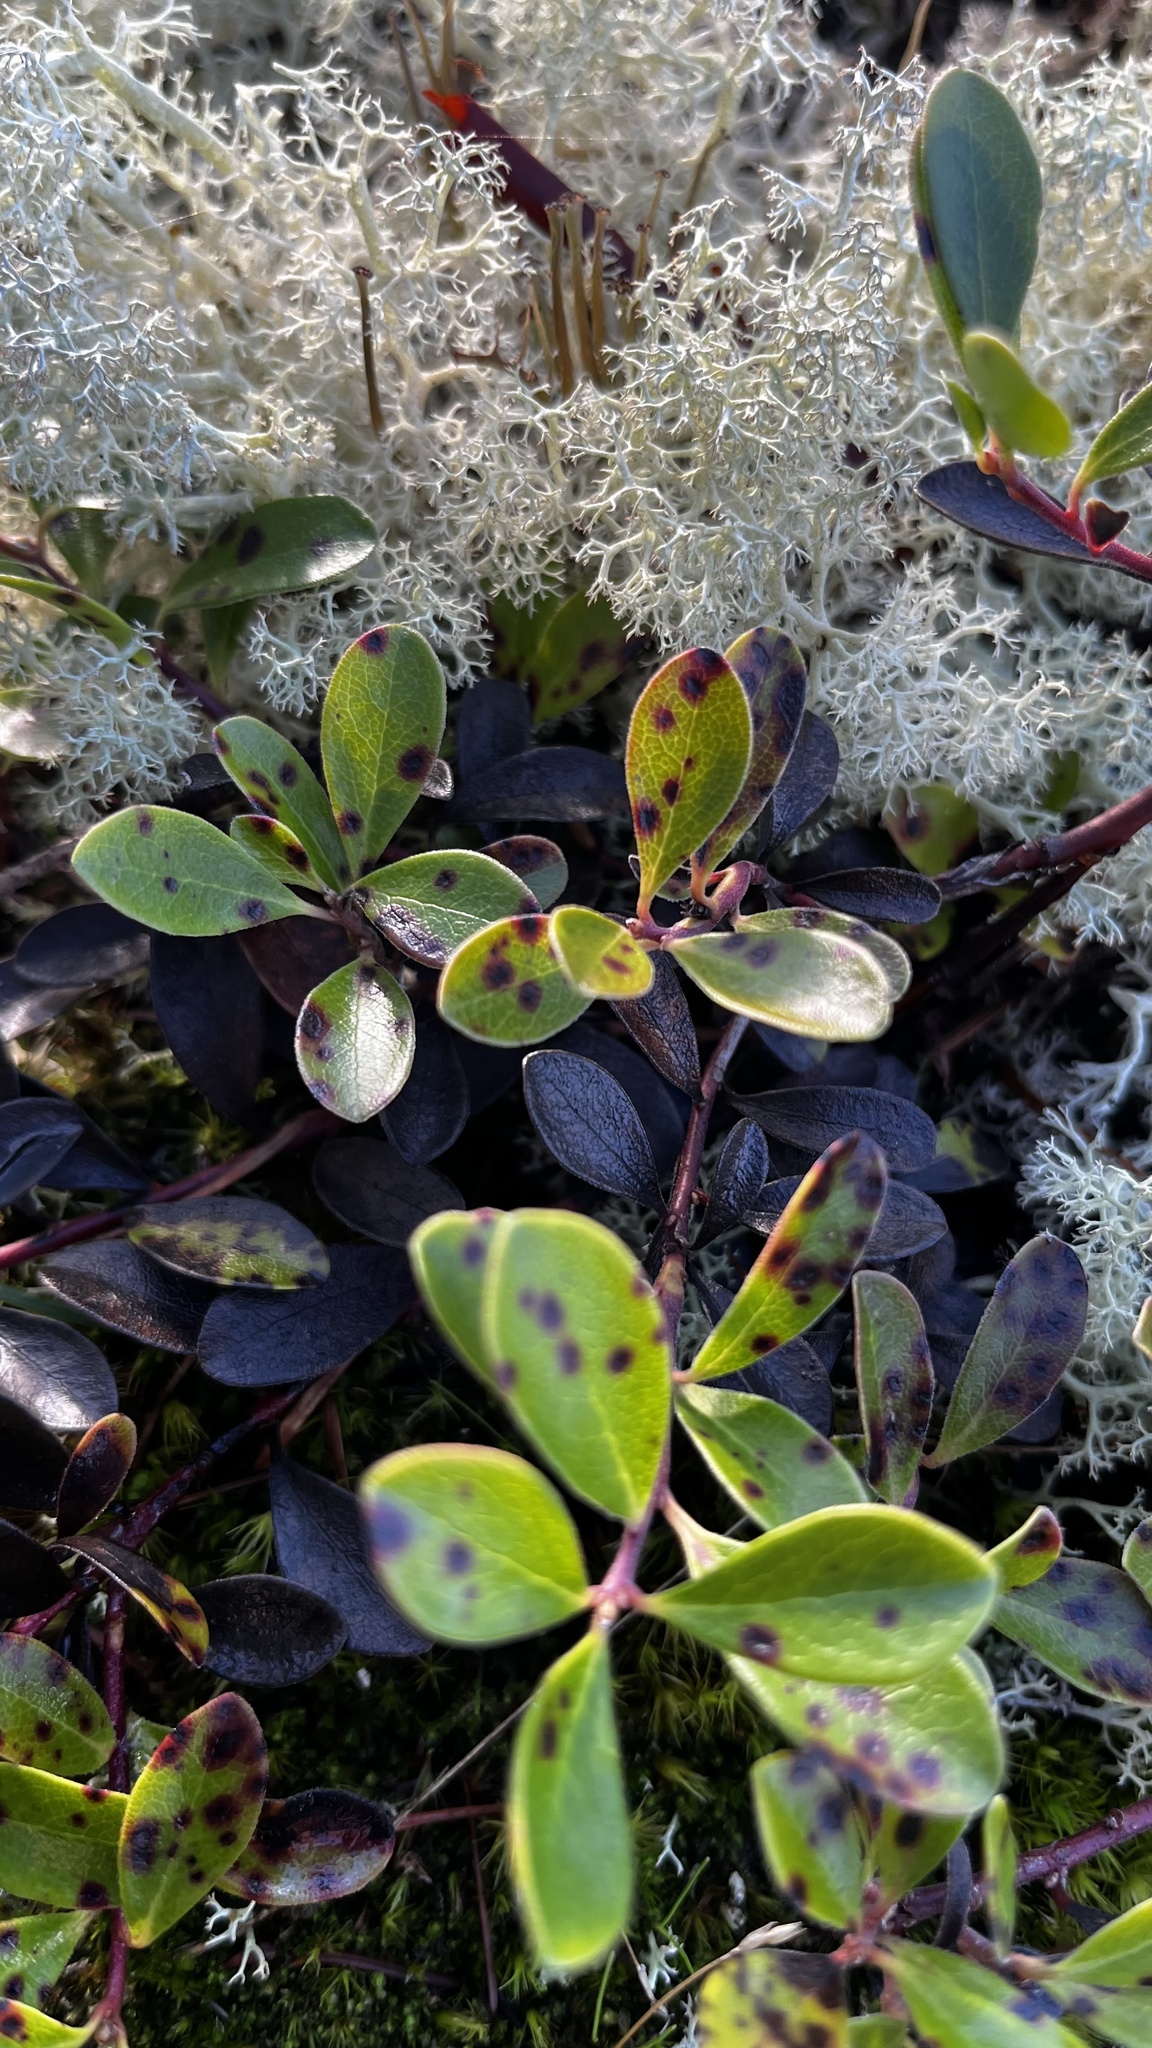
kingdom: Plantae
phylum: Tracheophyta
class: Magnoliopsida
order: Ericales
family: Ericaceae
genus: Arctostaphylos
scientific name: Arctostaphylos uva-ursi
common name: Bearberry
